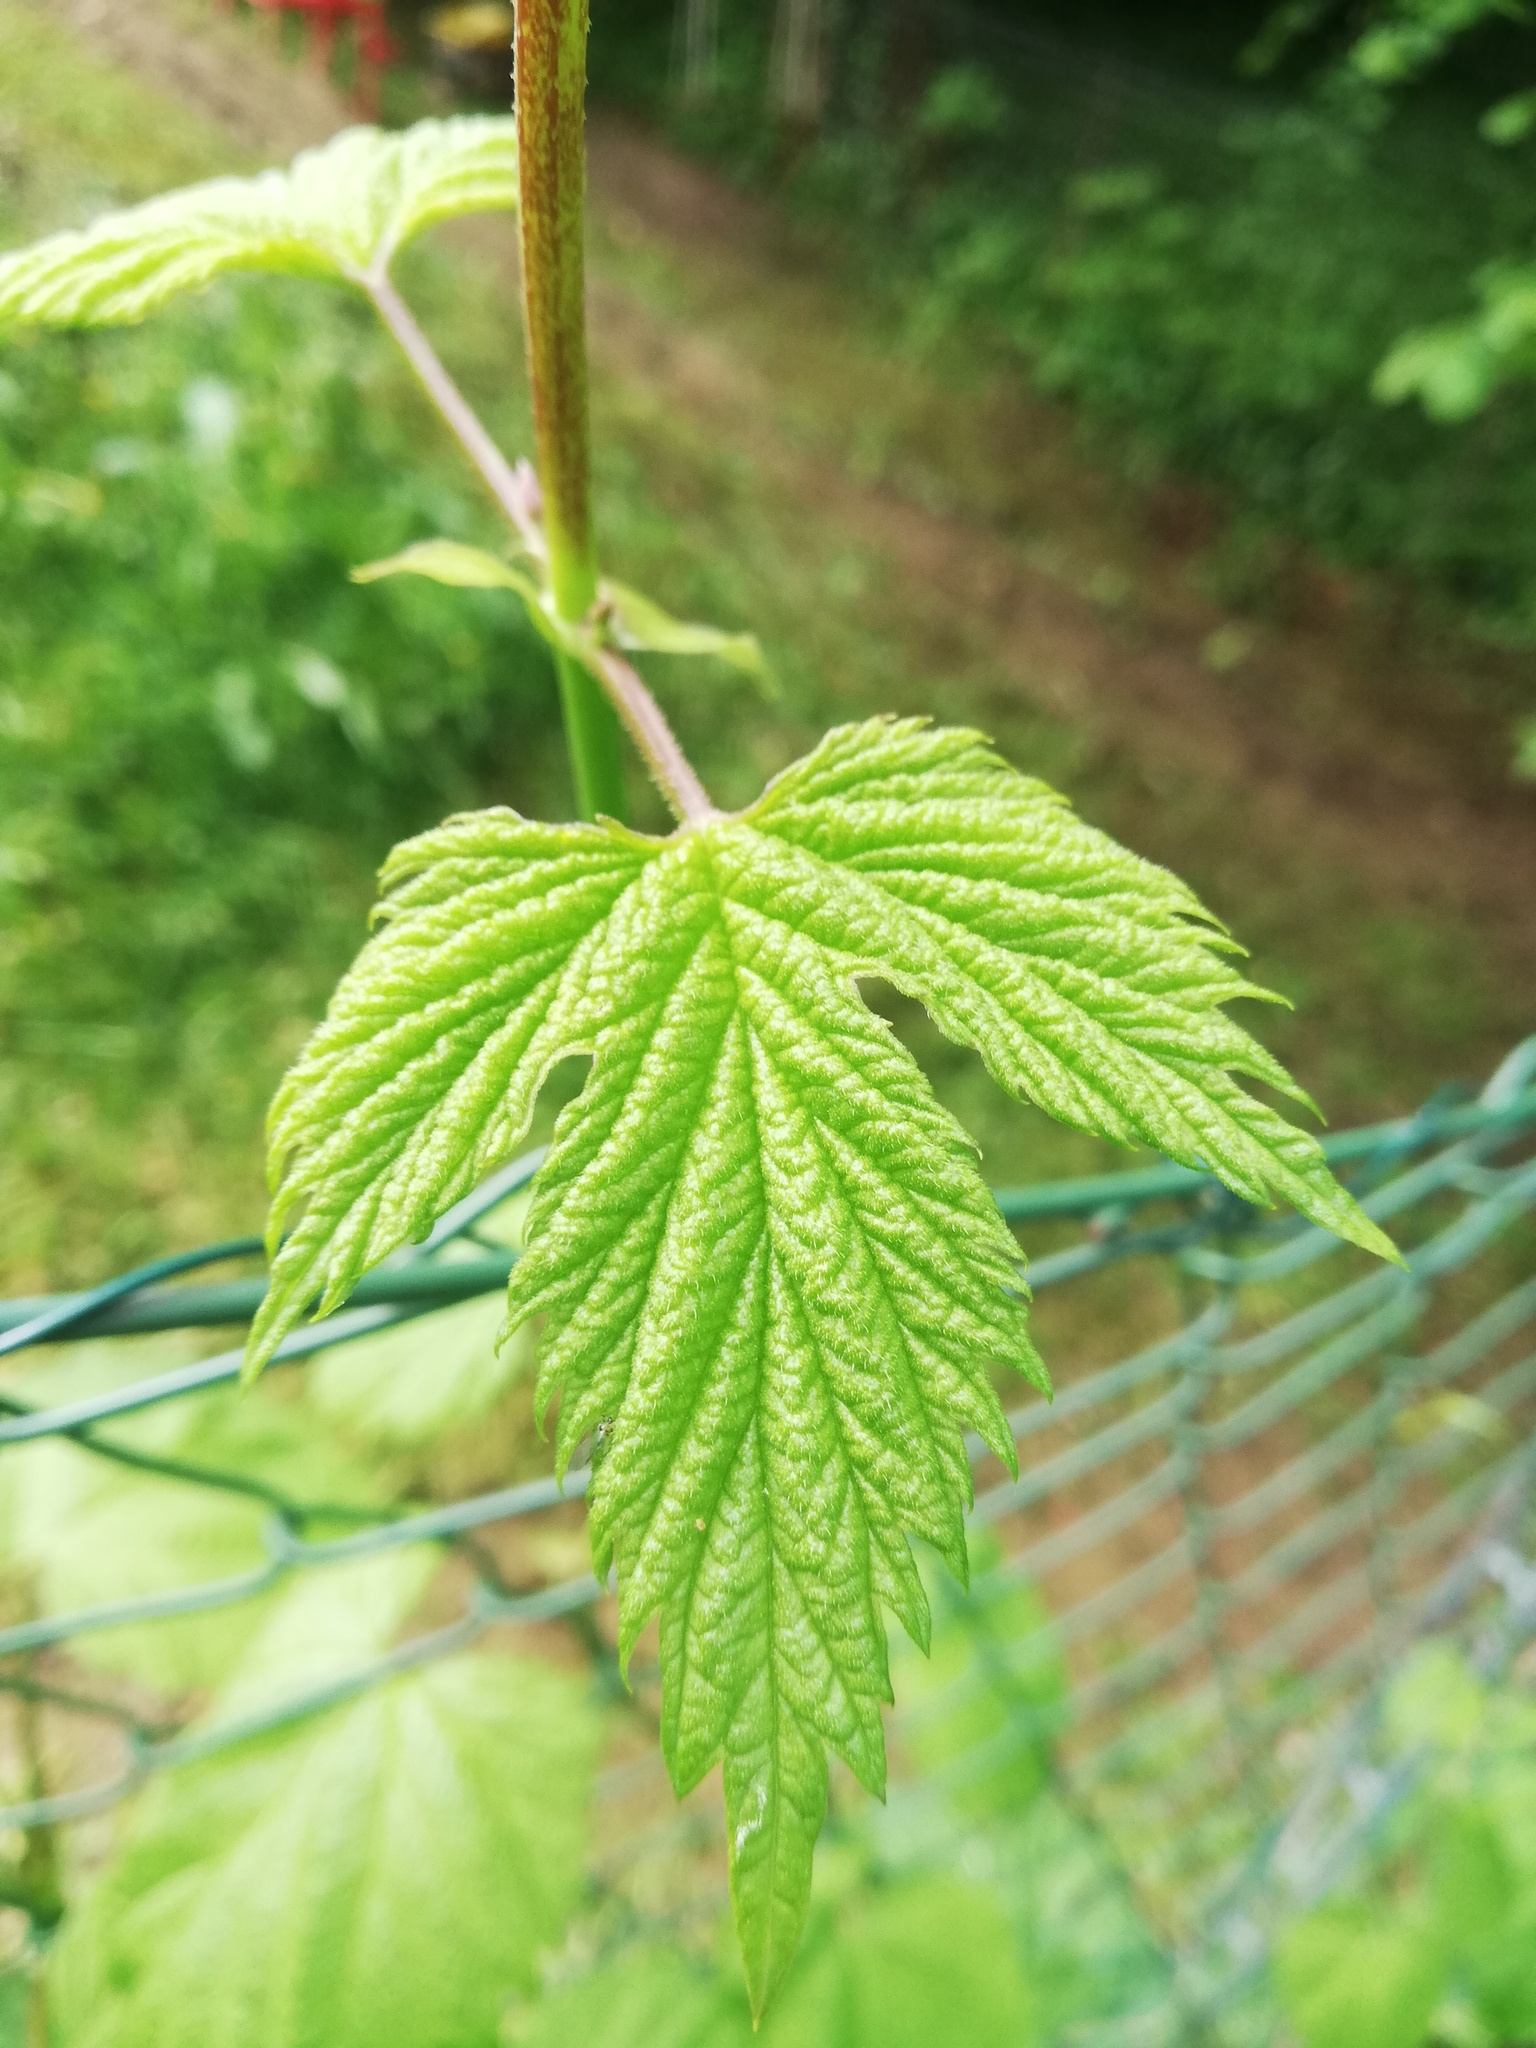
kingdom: Plantae
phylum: Tracheophyta
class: Magnoliopsida
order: Rosales
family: Cannabaceae
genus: Humulus
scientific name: Humulus lupulus
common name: Hop
